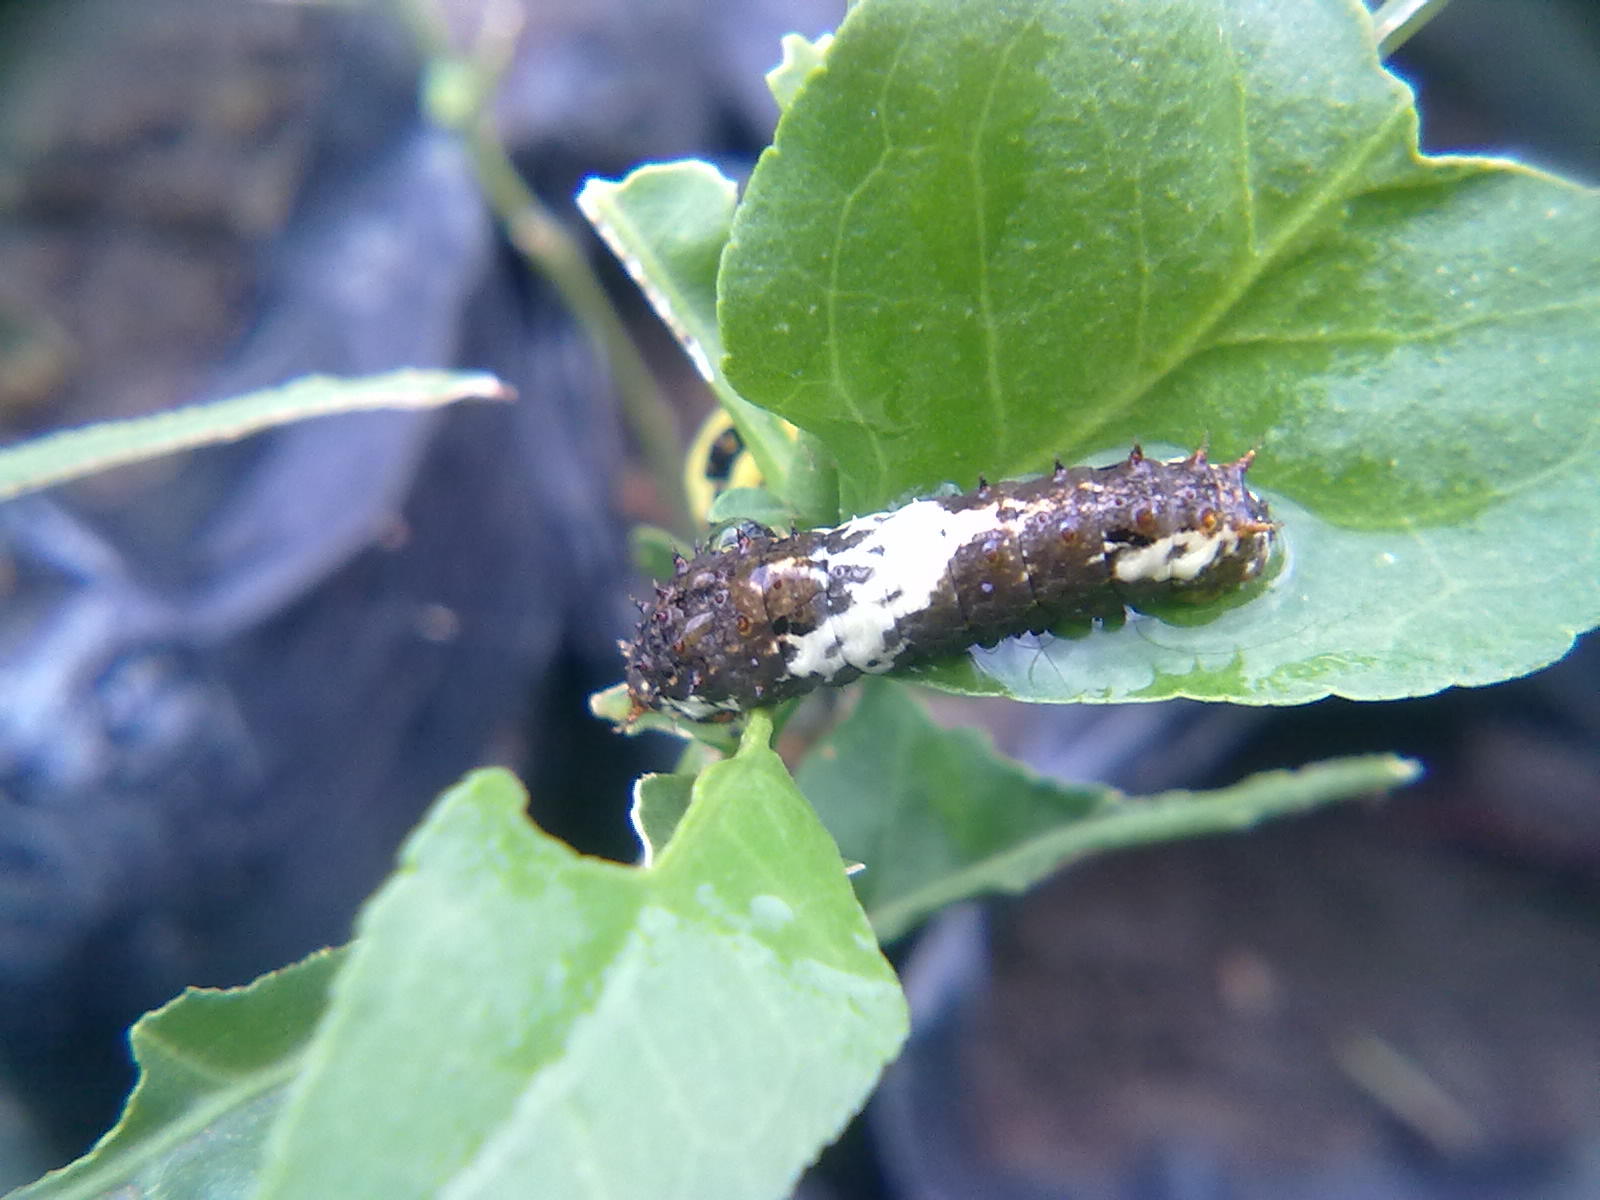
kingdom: Animalia
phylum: Arthropoda
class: Insecta
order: Lepidoptera
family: Papilionidae
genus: Papilio
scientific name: Papilio demoleus
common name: Lime butterfly
